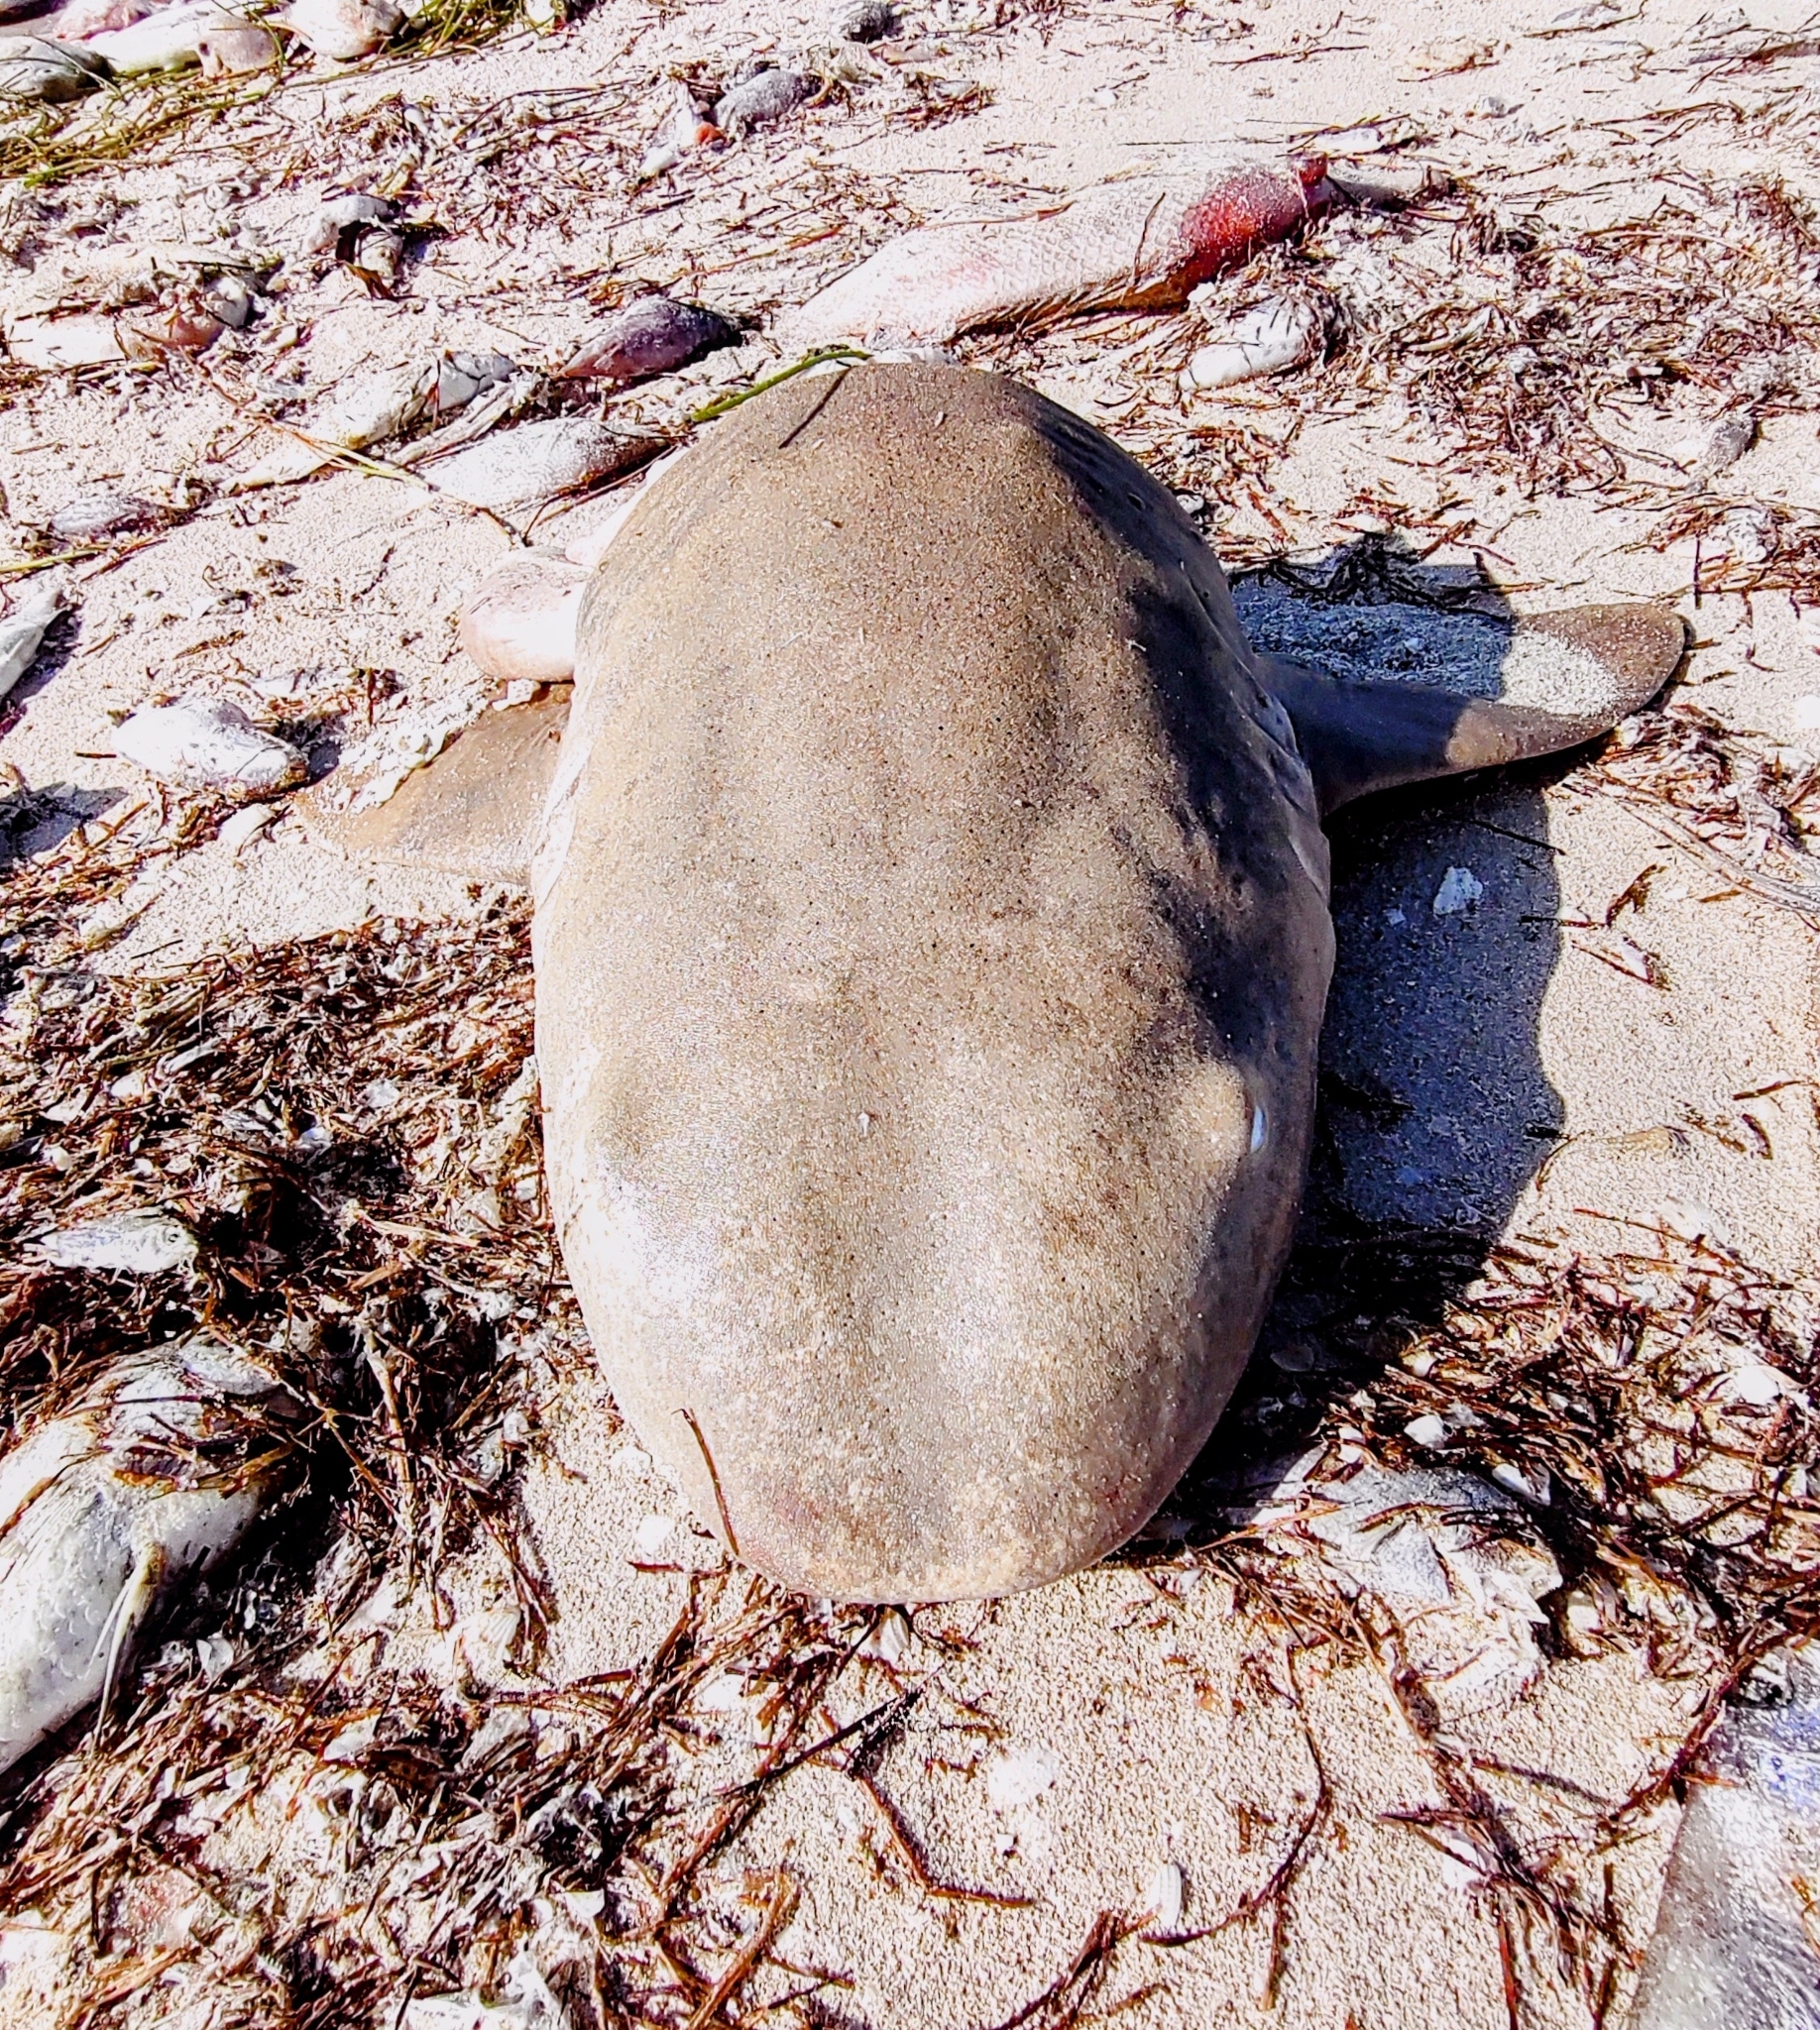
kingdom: Animalia
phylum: Chordata
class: Elasmobranchii
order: Orectolobiformes
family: Ginglymostomatidae
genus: Ginglymostoma
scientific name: Ginglymostoma cirratum
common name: Nurse shark
